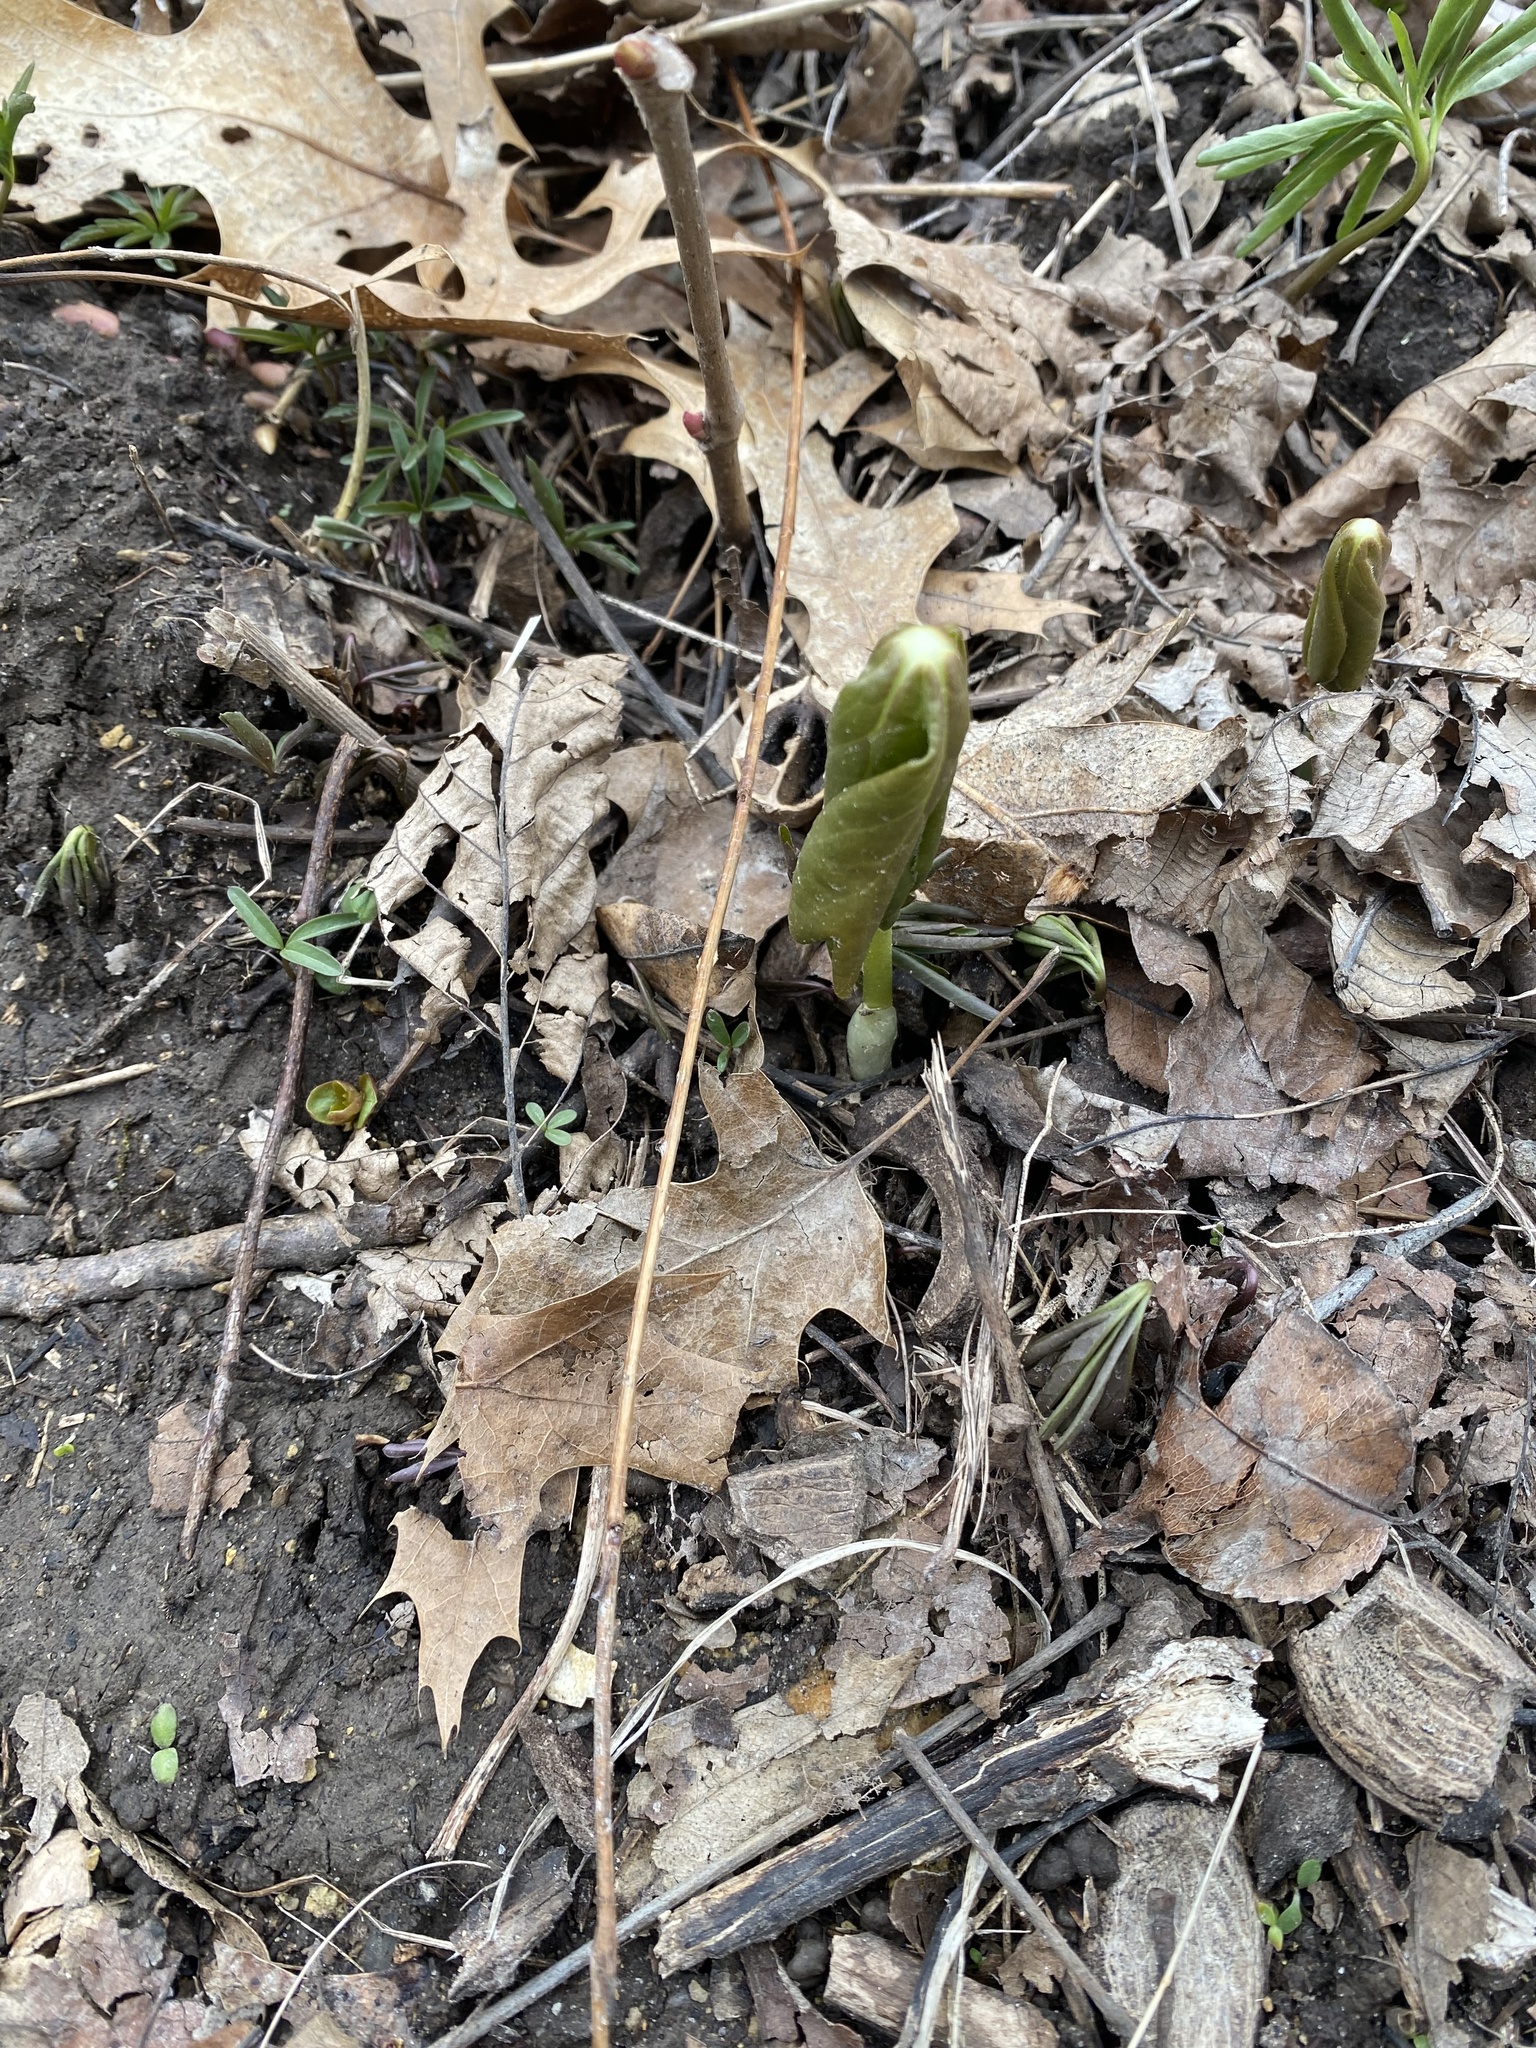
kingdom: Plantae
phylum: Tracheophyta
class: Magnoliopsida
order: Ranunculales
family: Berberidaceae
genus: Podophyllum
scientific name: Podophyllum peltatum
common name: Wild mandrake
